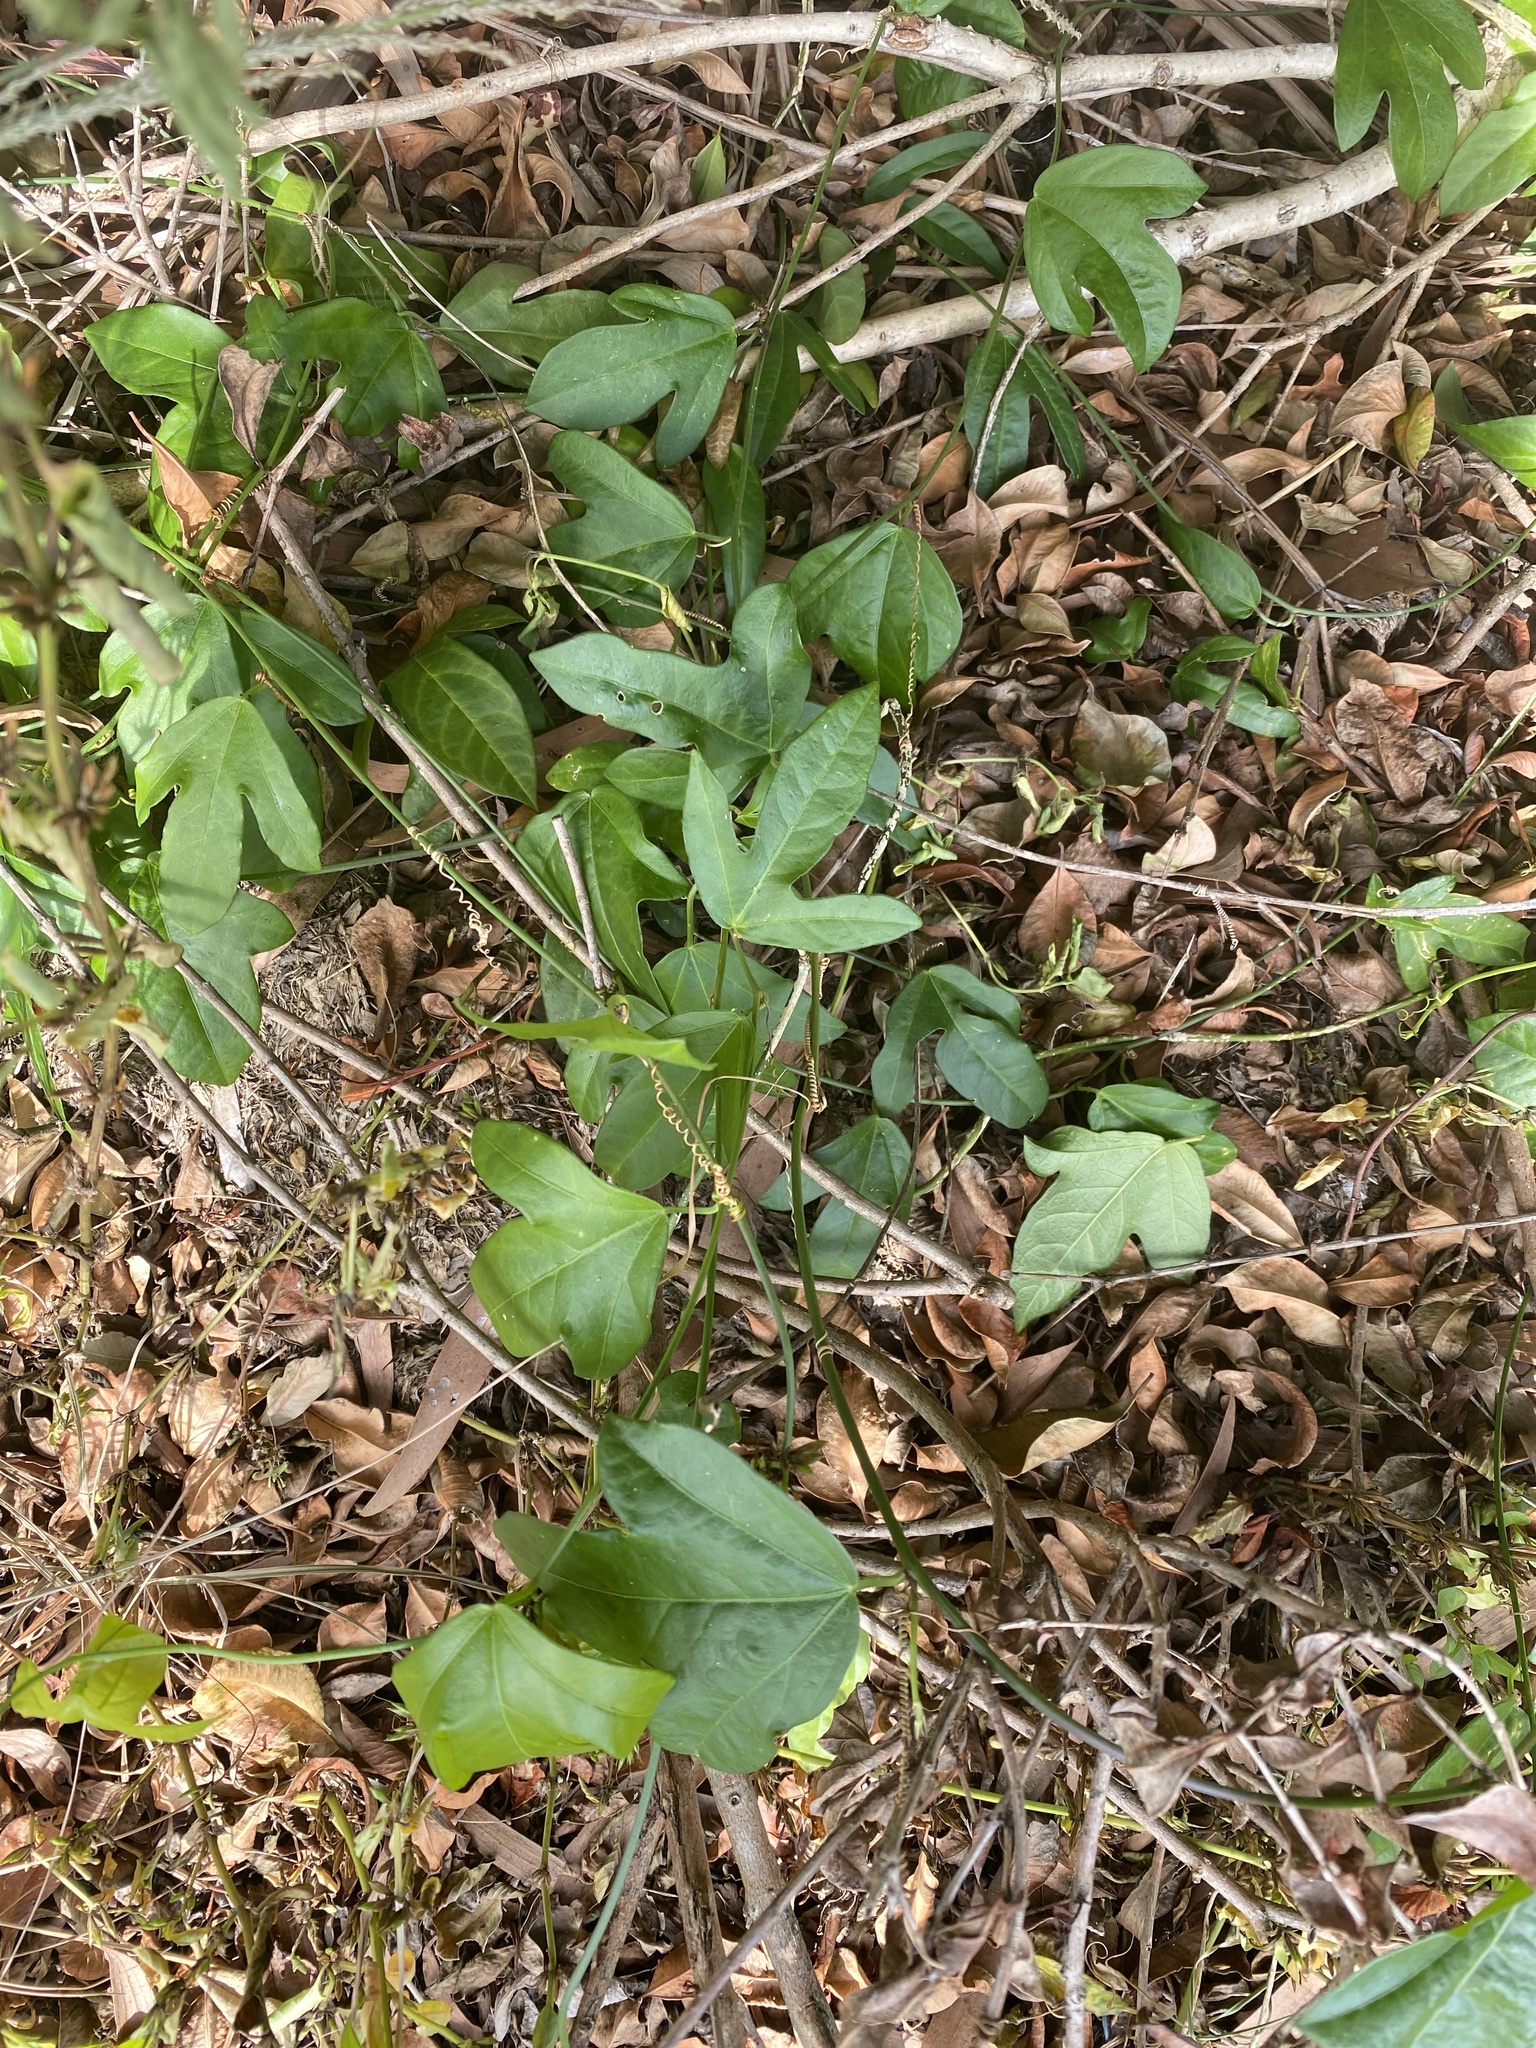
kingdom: Plantae
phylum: Tracheophyta
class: Magnoliopsida
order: Malpighiales
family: Passifloraceae
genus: Passiflora
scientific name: Passiflora pallida
